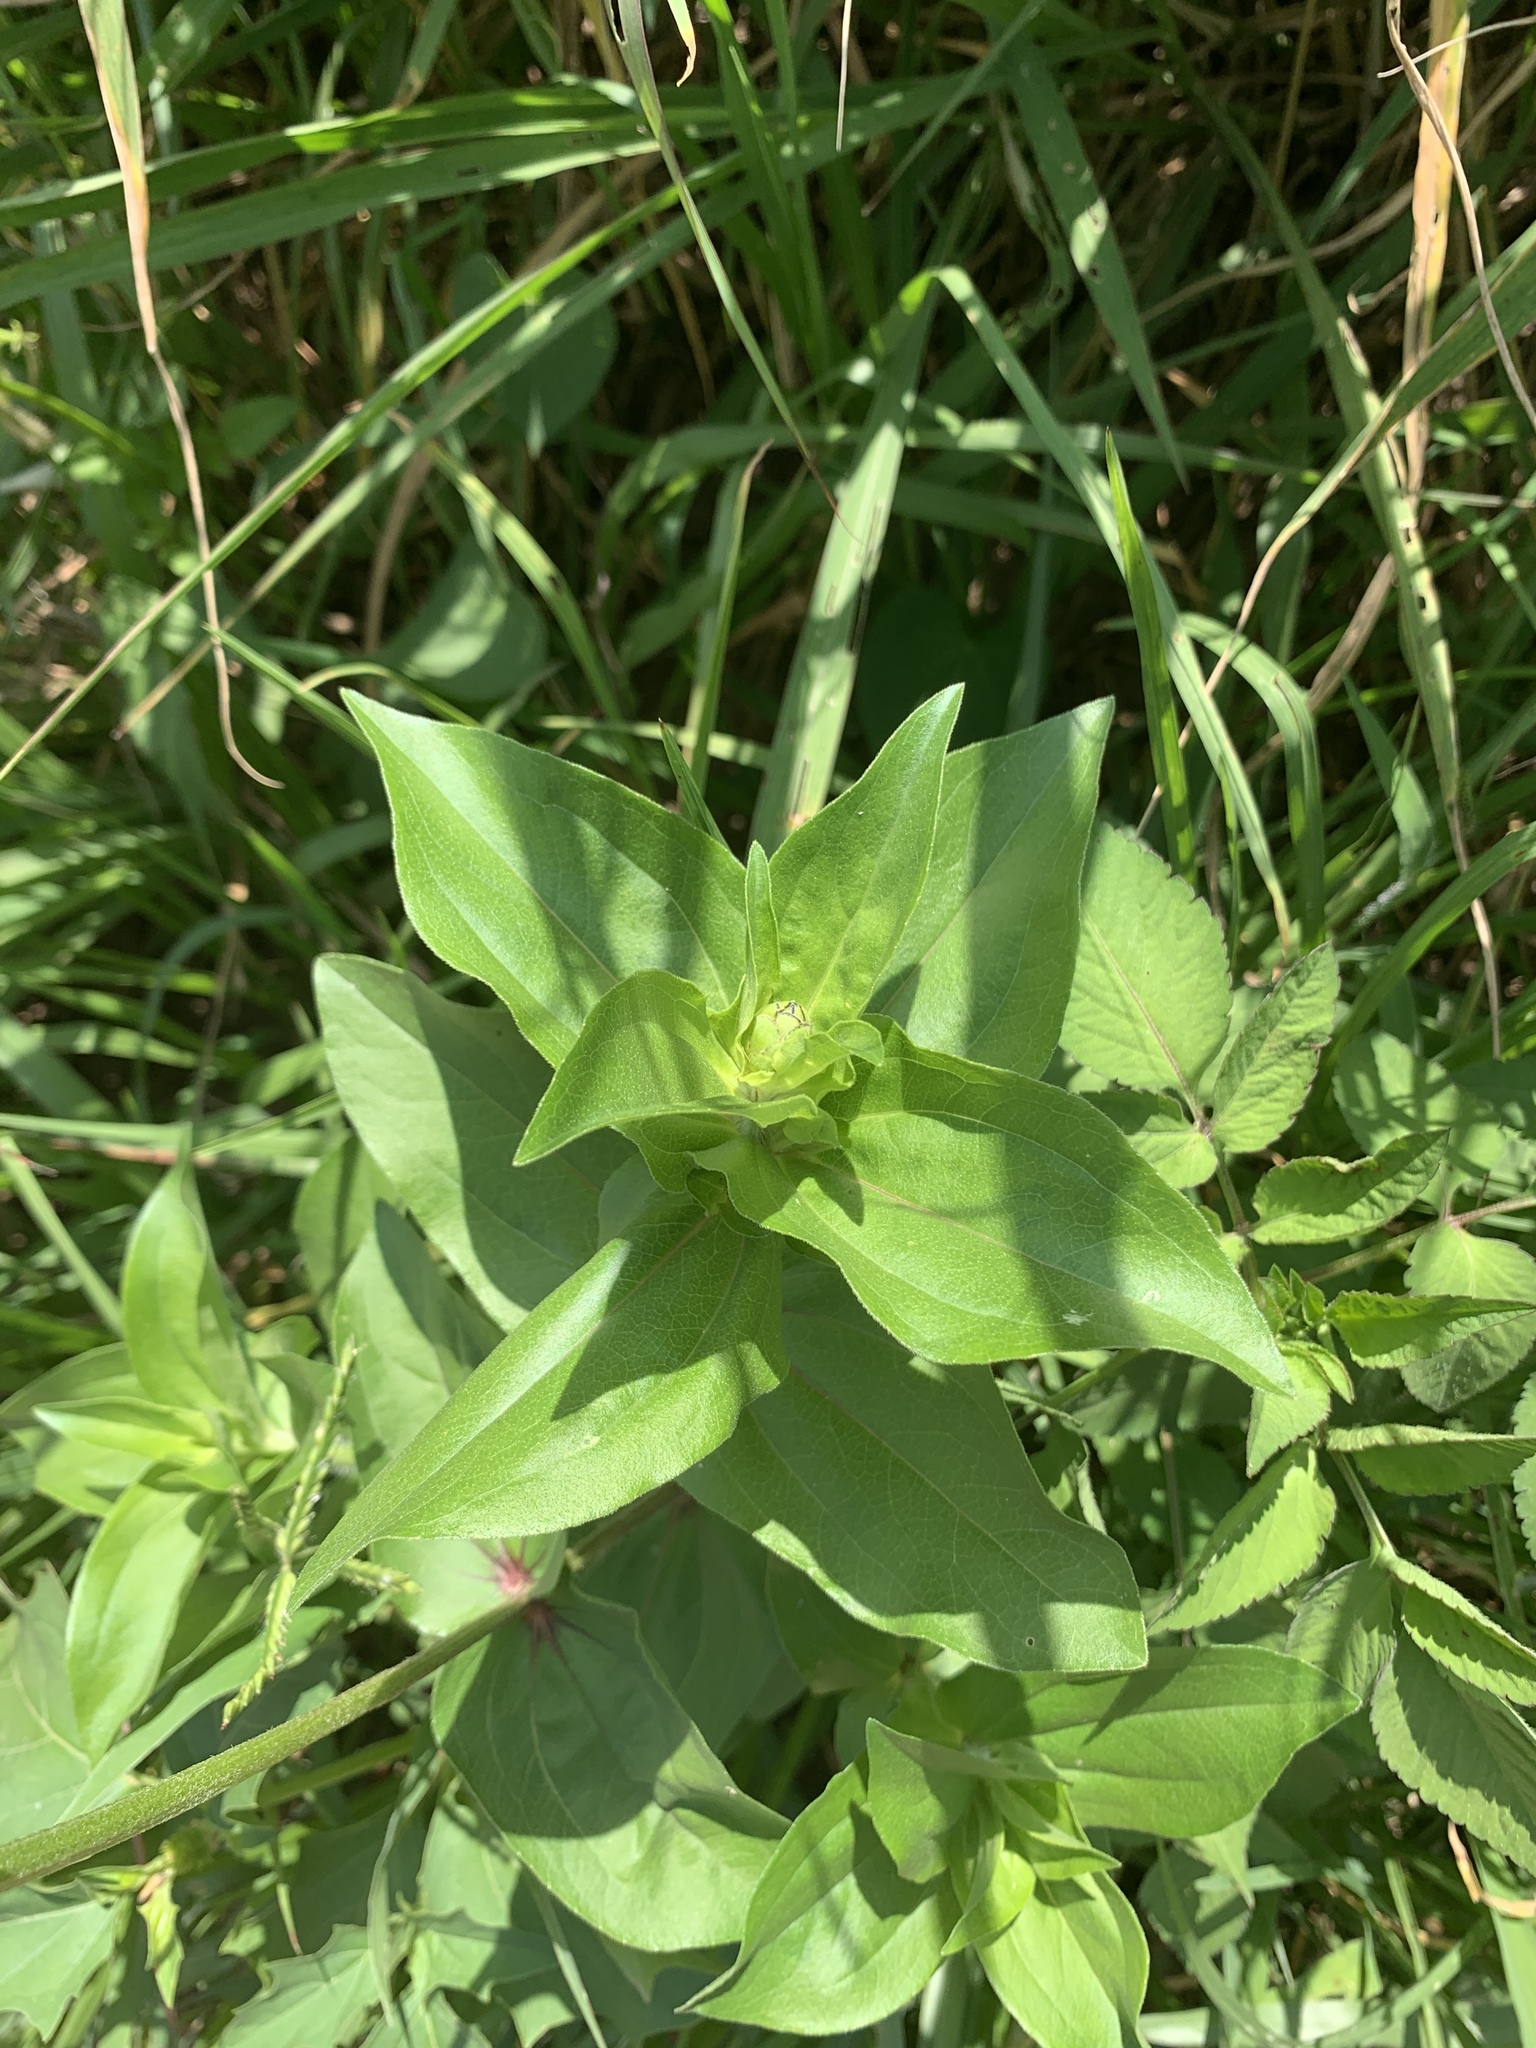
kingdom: Plantae
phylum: Tracheophyta
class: Magnoliopsida
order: Asterales
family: Asteraceae
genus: Zinnia
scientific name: Zinnia elegans
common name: Youth-and-age
